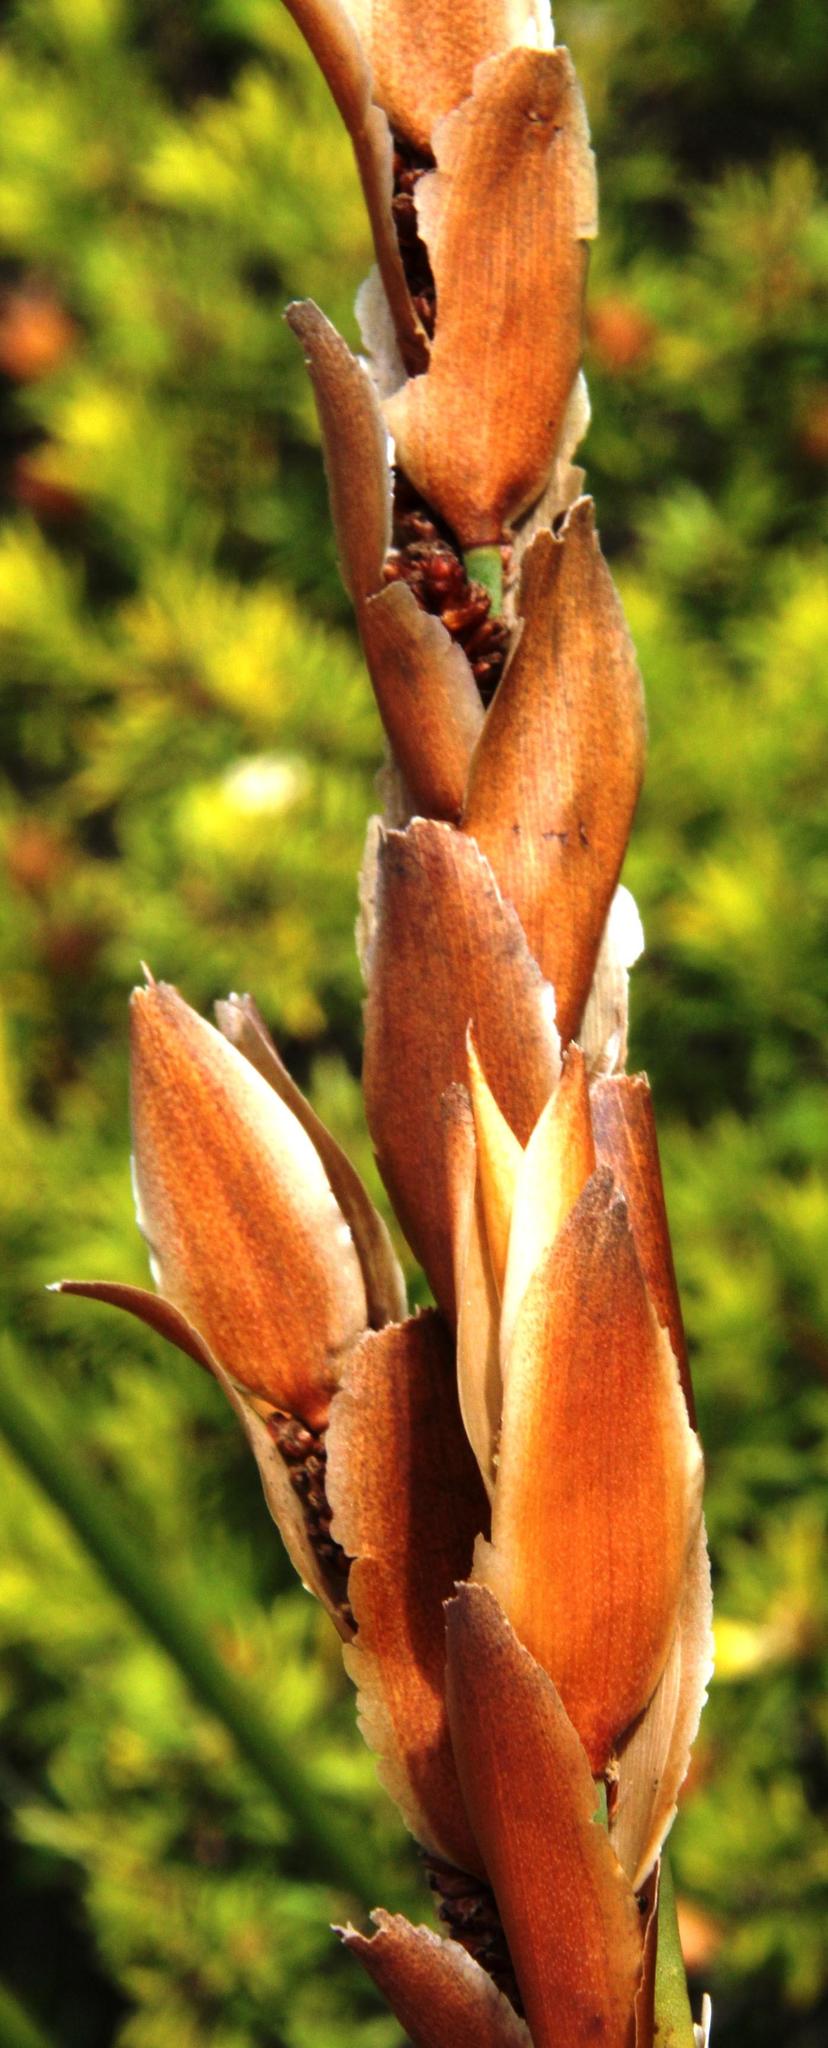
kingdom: Plantae
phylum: Tracheophyta
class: Liliopsida
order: Poales
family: Restionaceae
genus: Elegia
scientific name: Elegia racemosa
